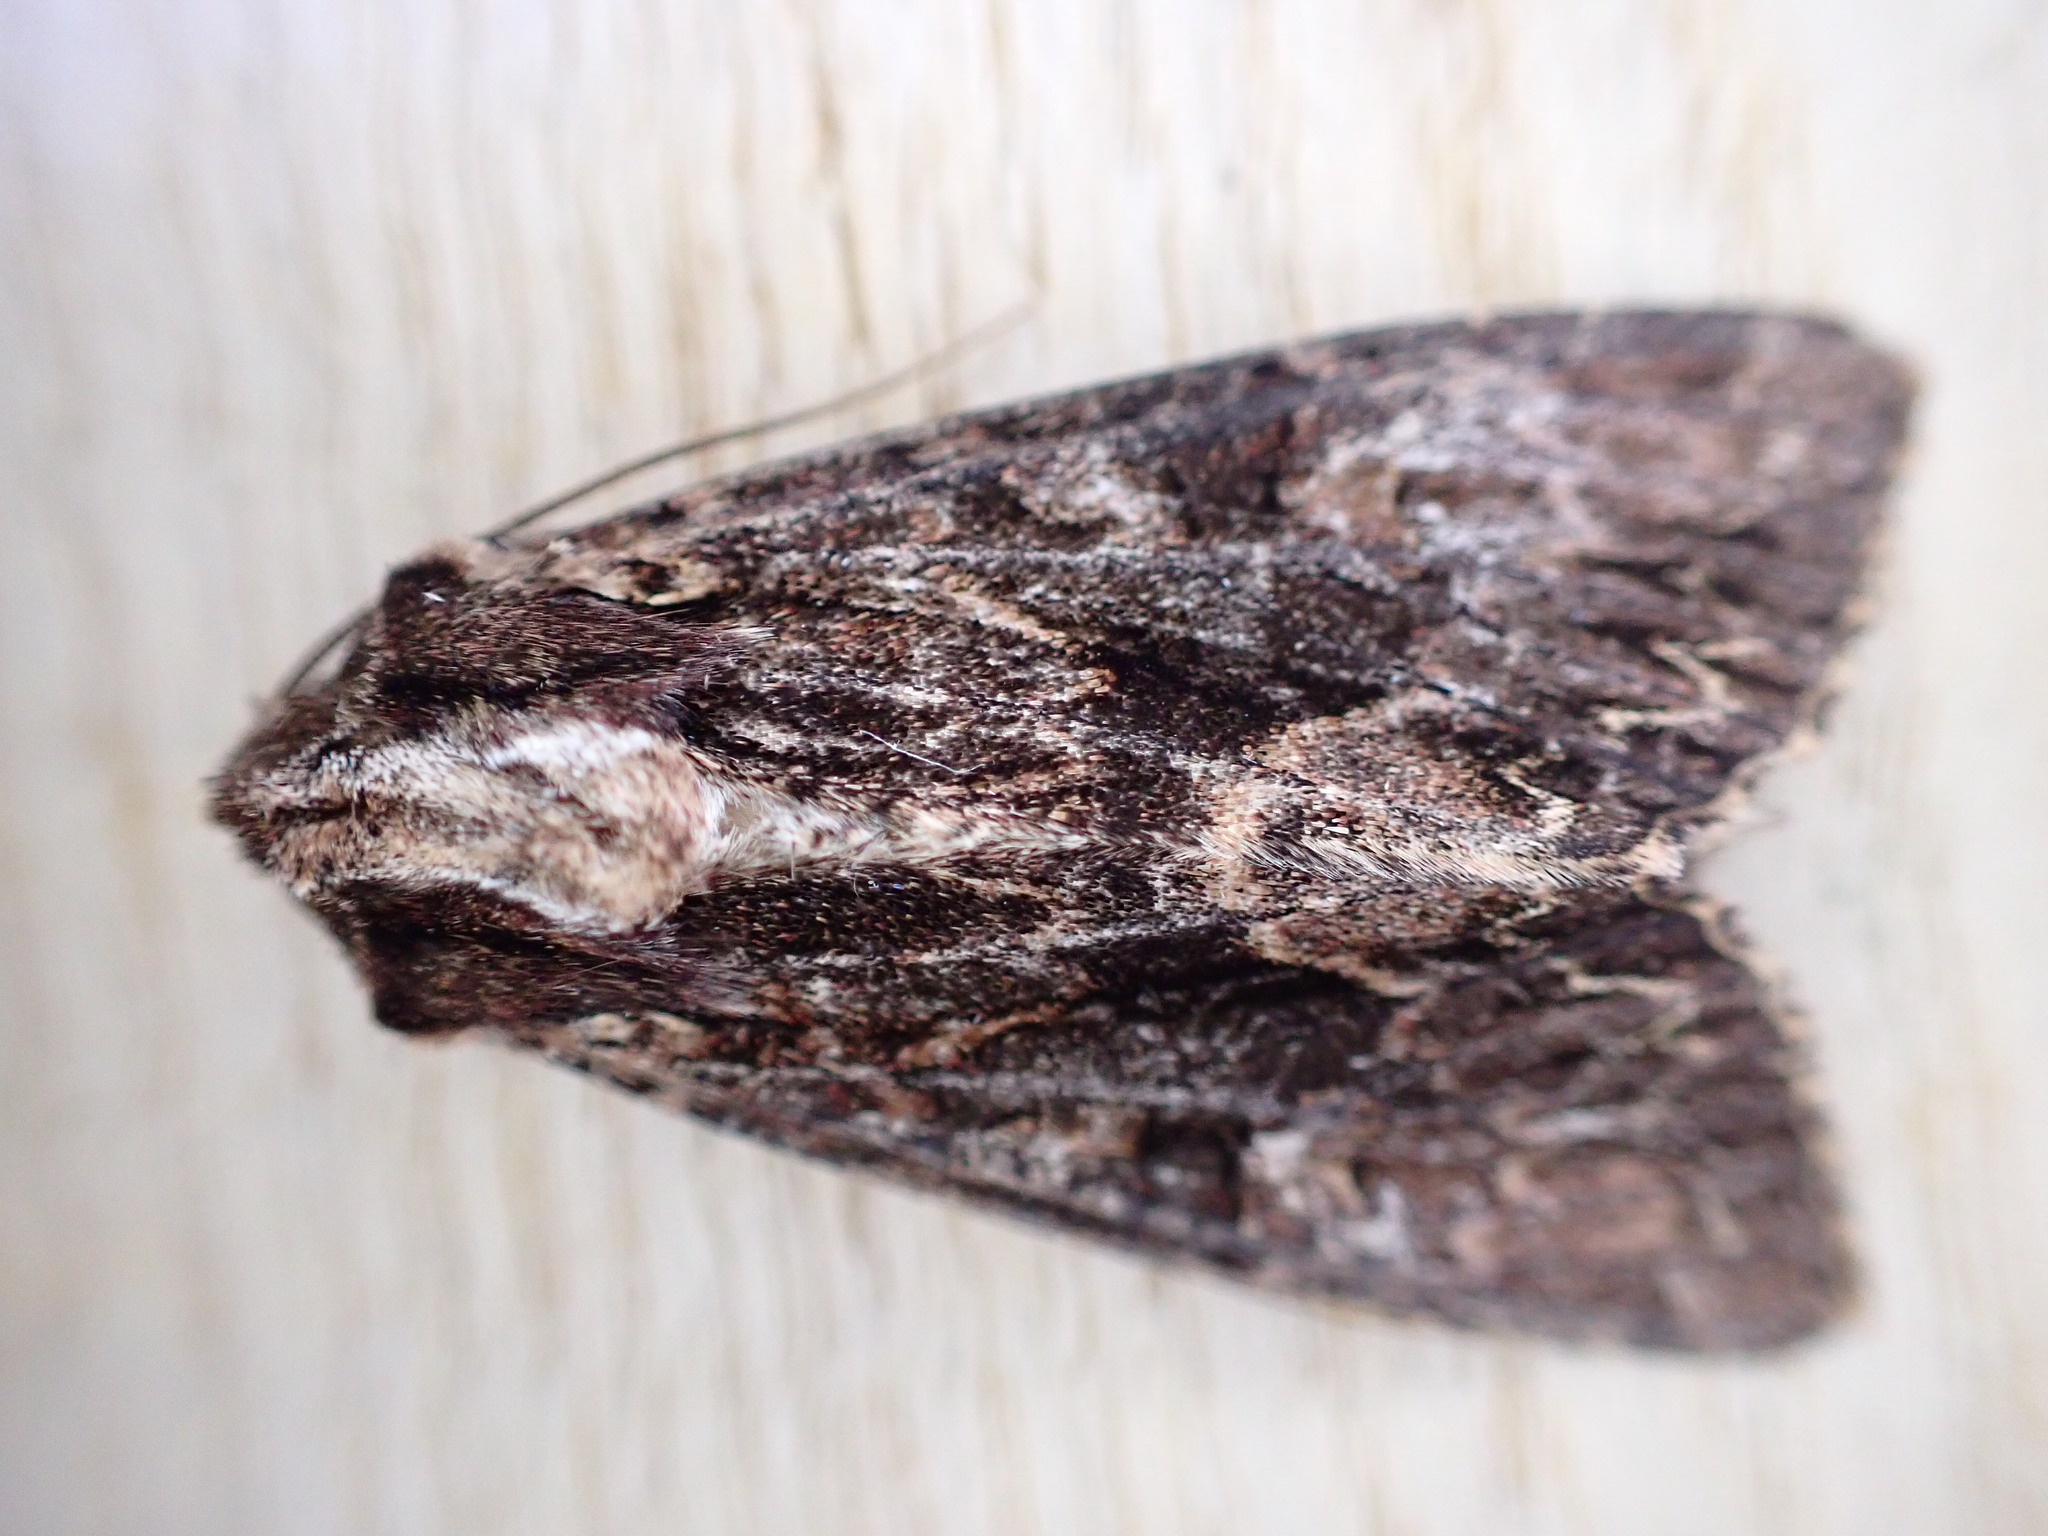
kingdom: Animalia
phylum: Arthropoda
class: Insecta
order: Lepidoptera
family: Noctuidae
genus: Apamea
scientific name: Apamea monoglypha
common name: Dark arches
